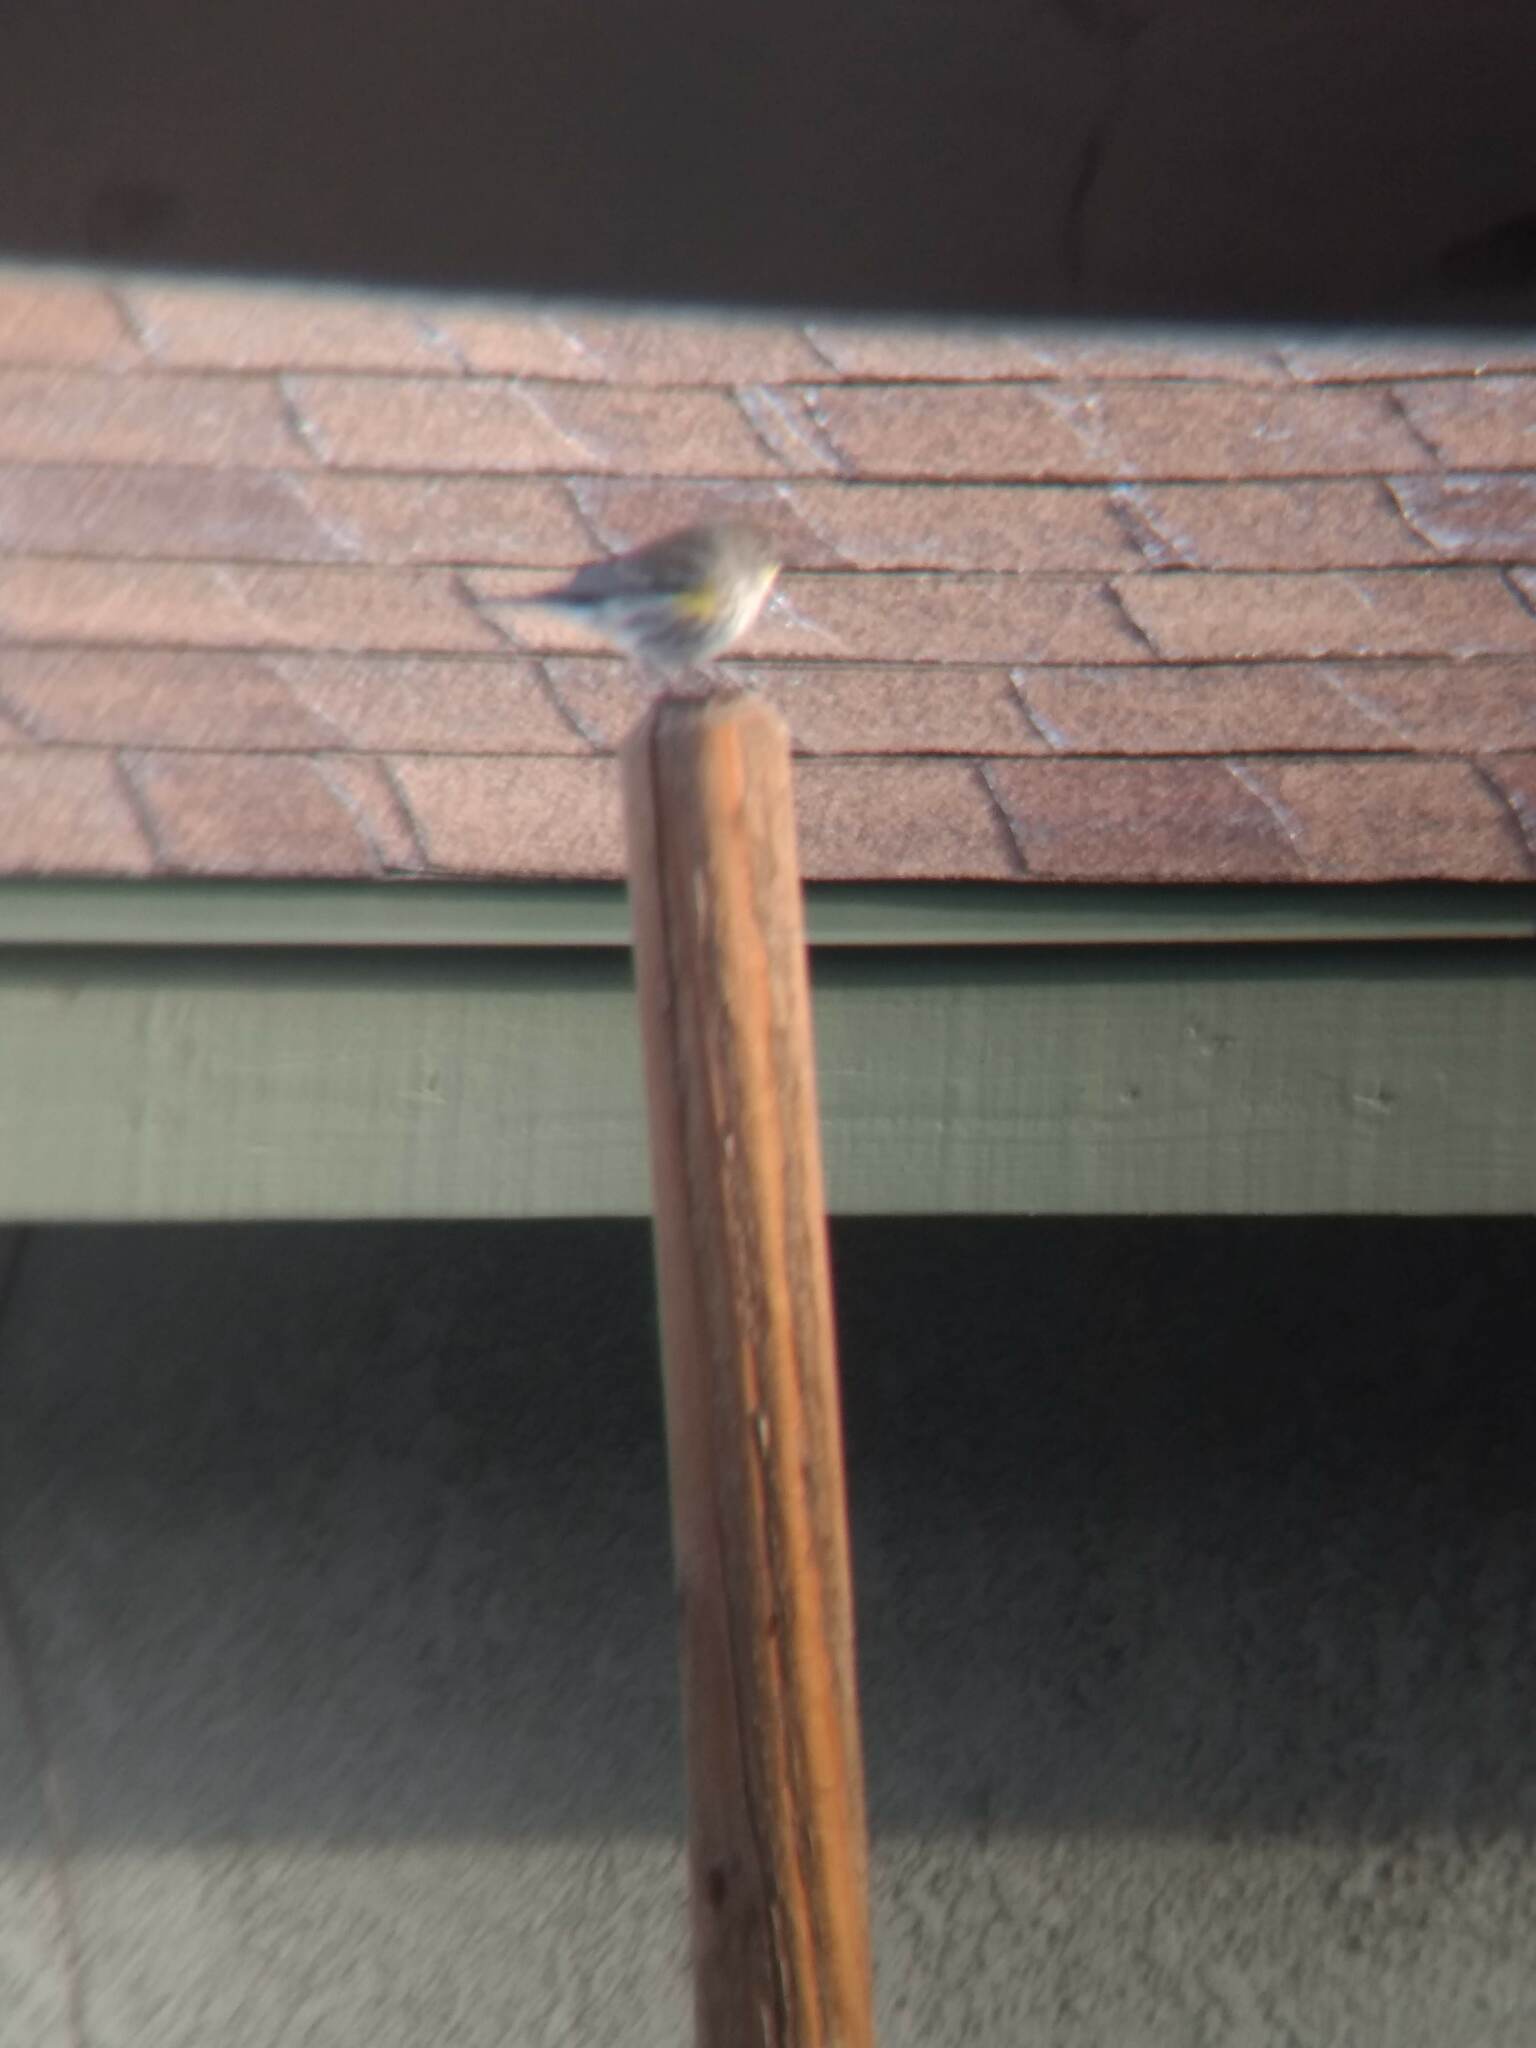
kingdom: Animalia
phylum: Chordata
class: Aves
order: Passeriformes
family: Parulidae
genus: Setophaga
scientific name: Setophaga coronata
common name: Myrtle warbler
